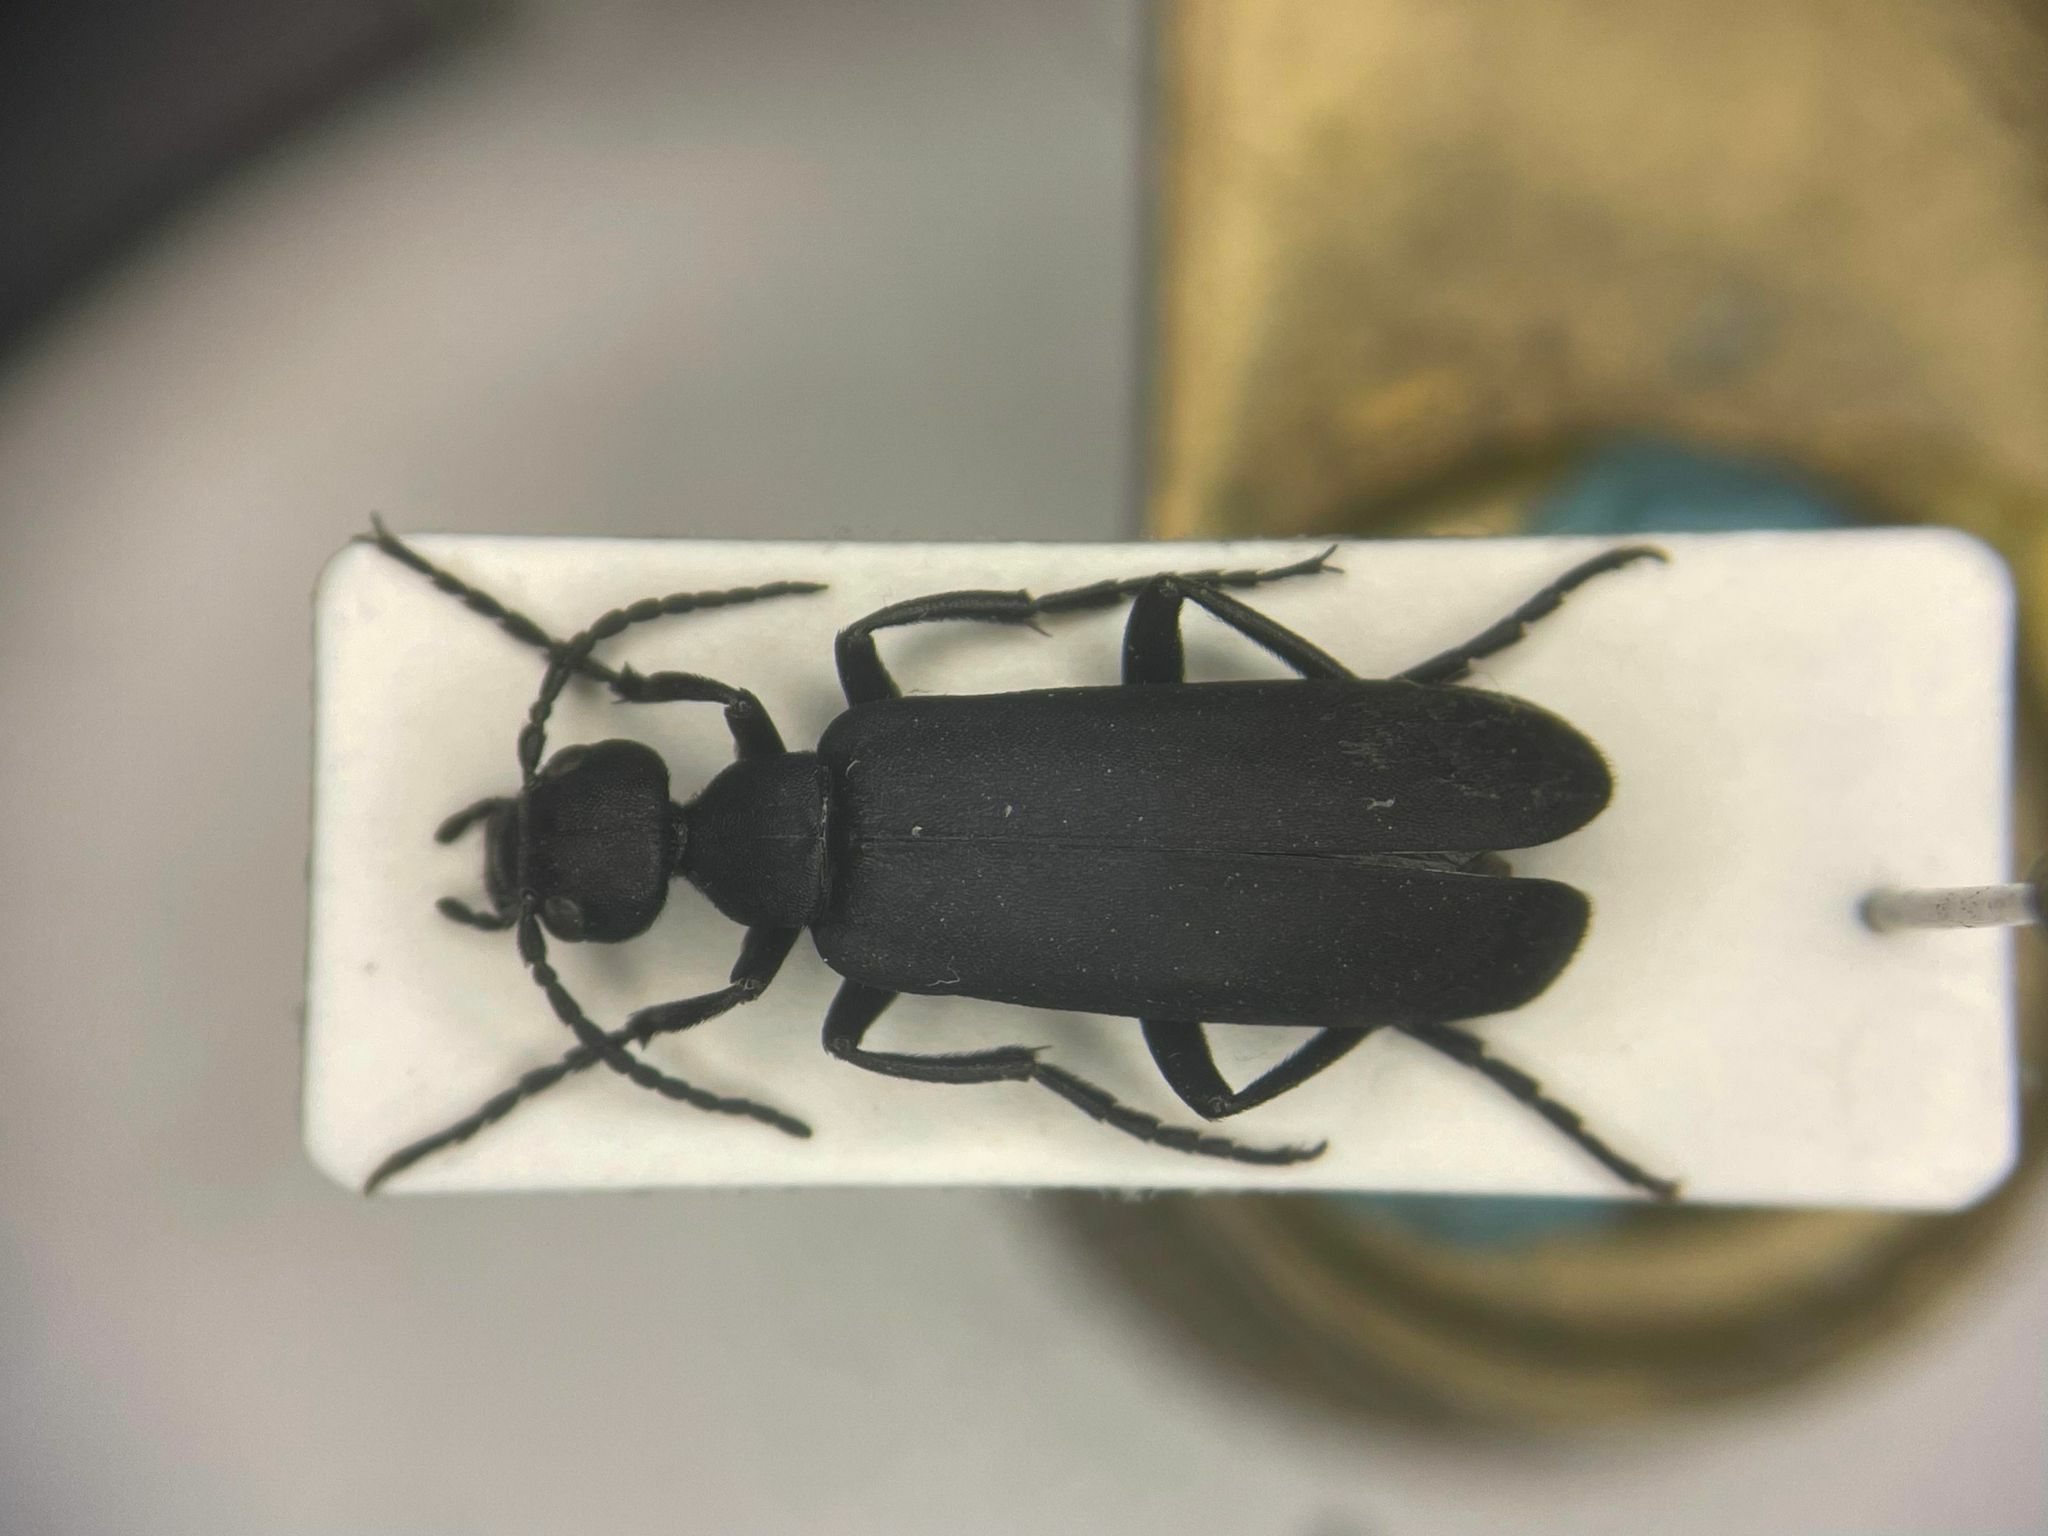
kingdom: Animalia
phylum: Arthropoda
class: Insecta
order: Coleoptera
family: Meloidae
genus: Epicauta
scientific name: Epicauta pensylvanica
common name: Black blister beetle
